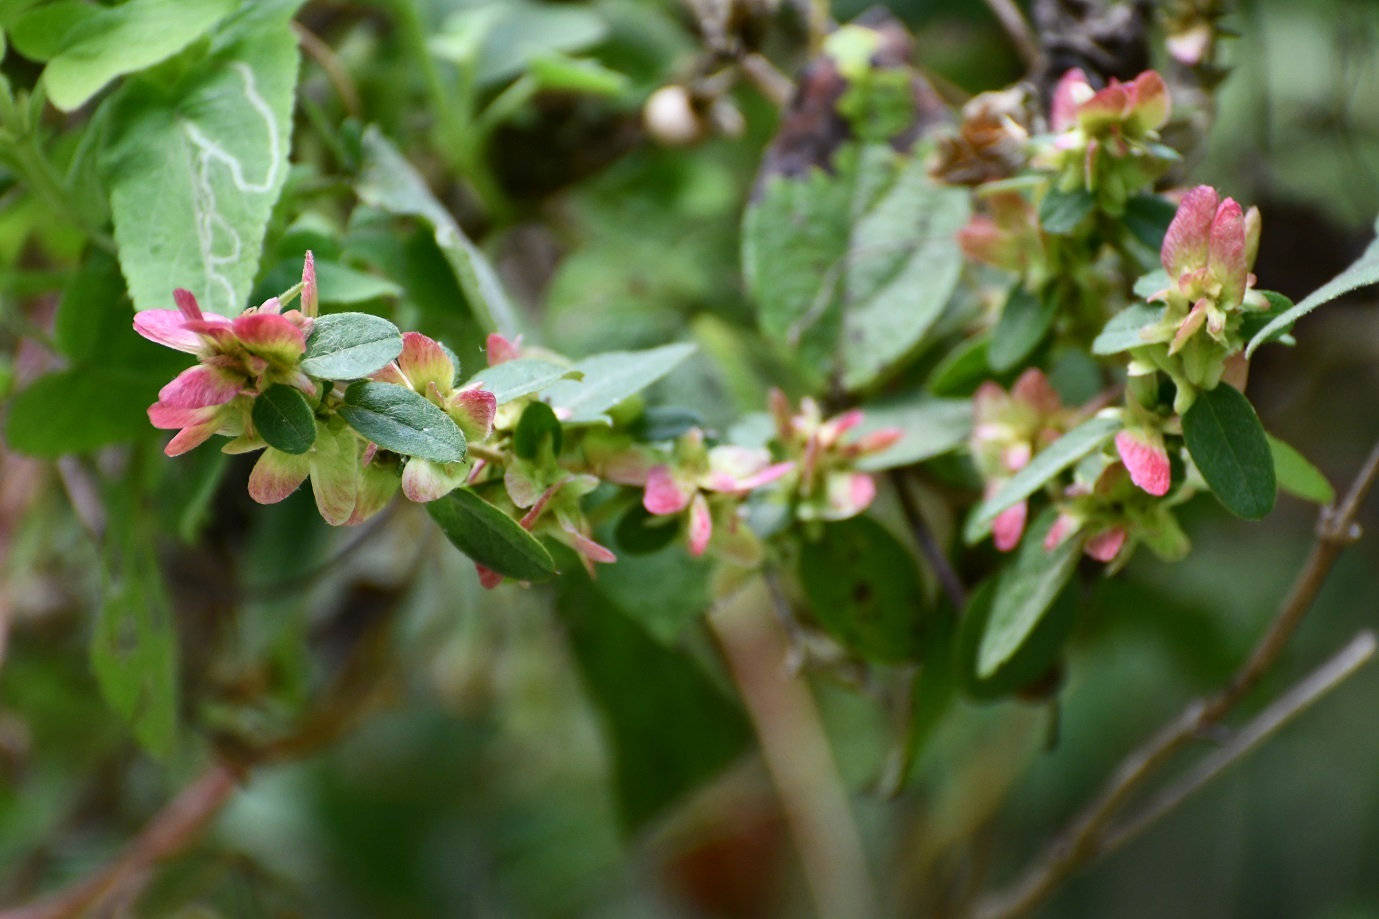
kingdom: Plantae
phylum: Tracheophyta
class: Magnoliopsida
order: Malpighiales
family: Malpighiaceae
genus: Gaudichaudia
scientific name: Gaudichaudia hexandra
